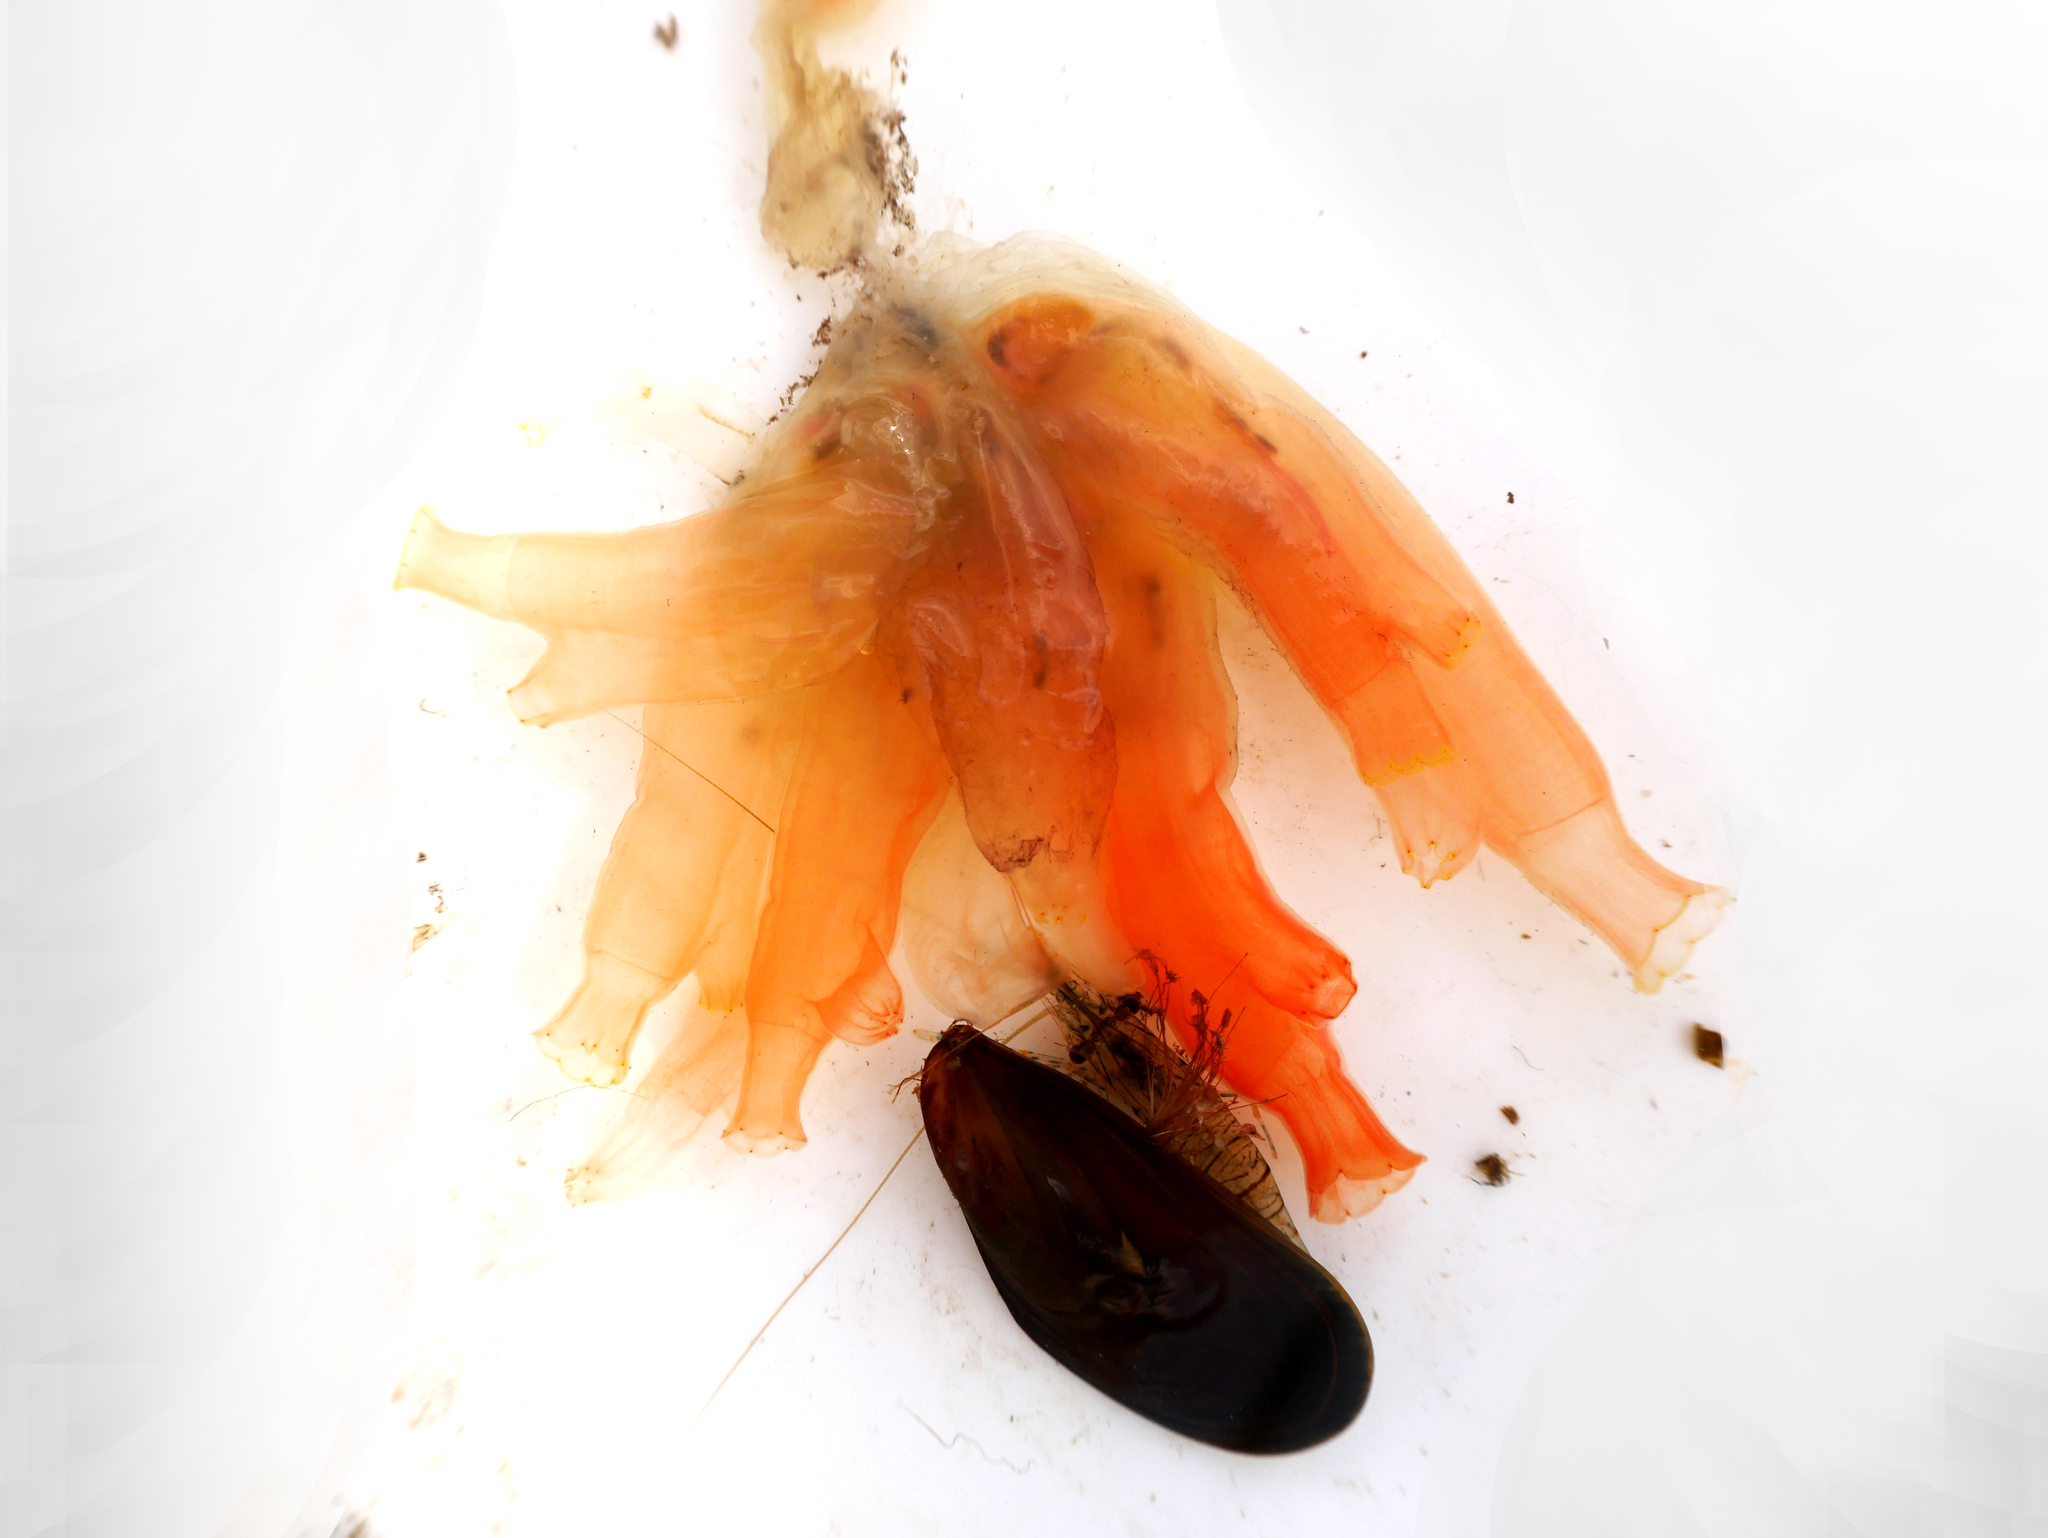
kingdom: Animalia
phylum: Chordata
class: Ascidiacea
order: Phlebobranchia
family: Cionidae
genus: Ciona
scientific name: Ciona intestinalis
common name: Vase tunicate
